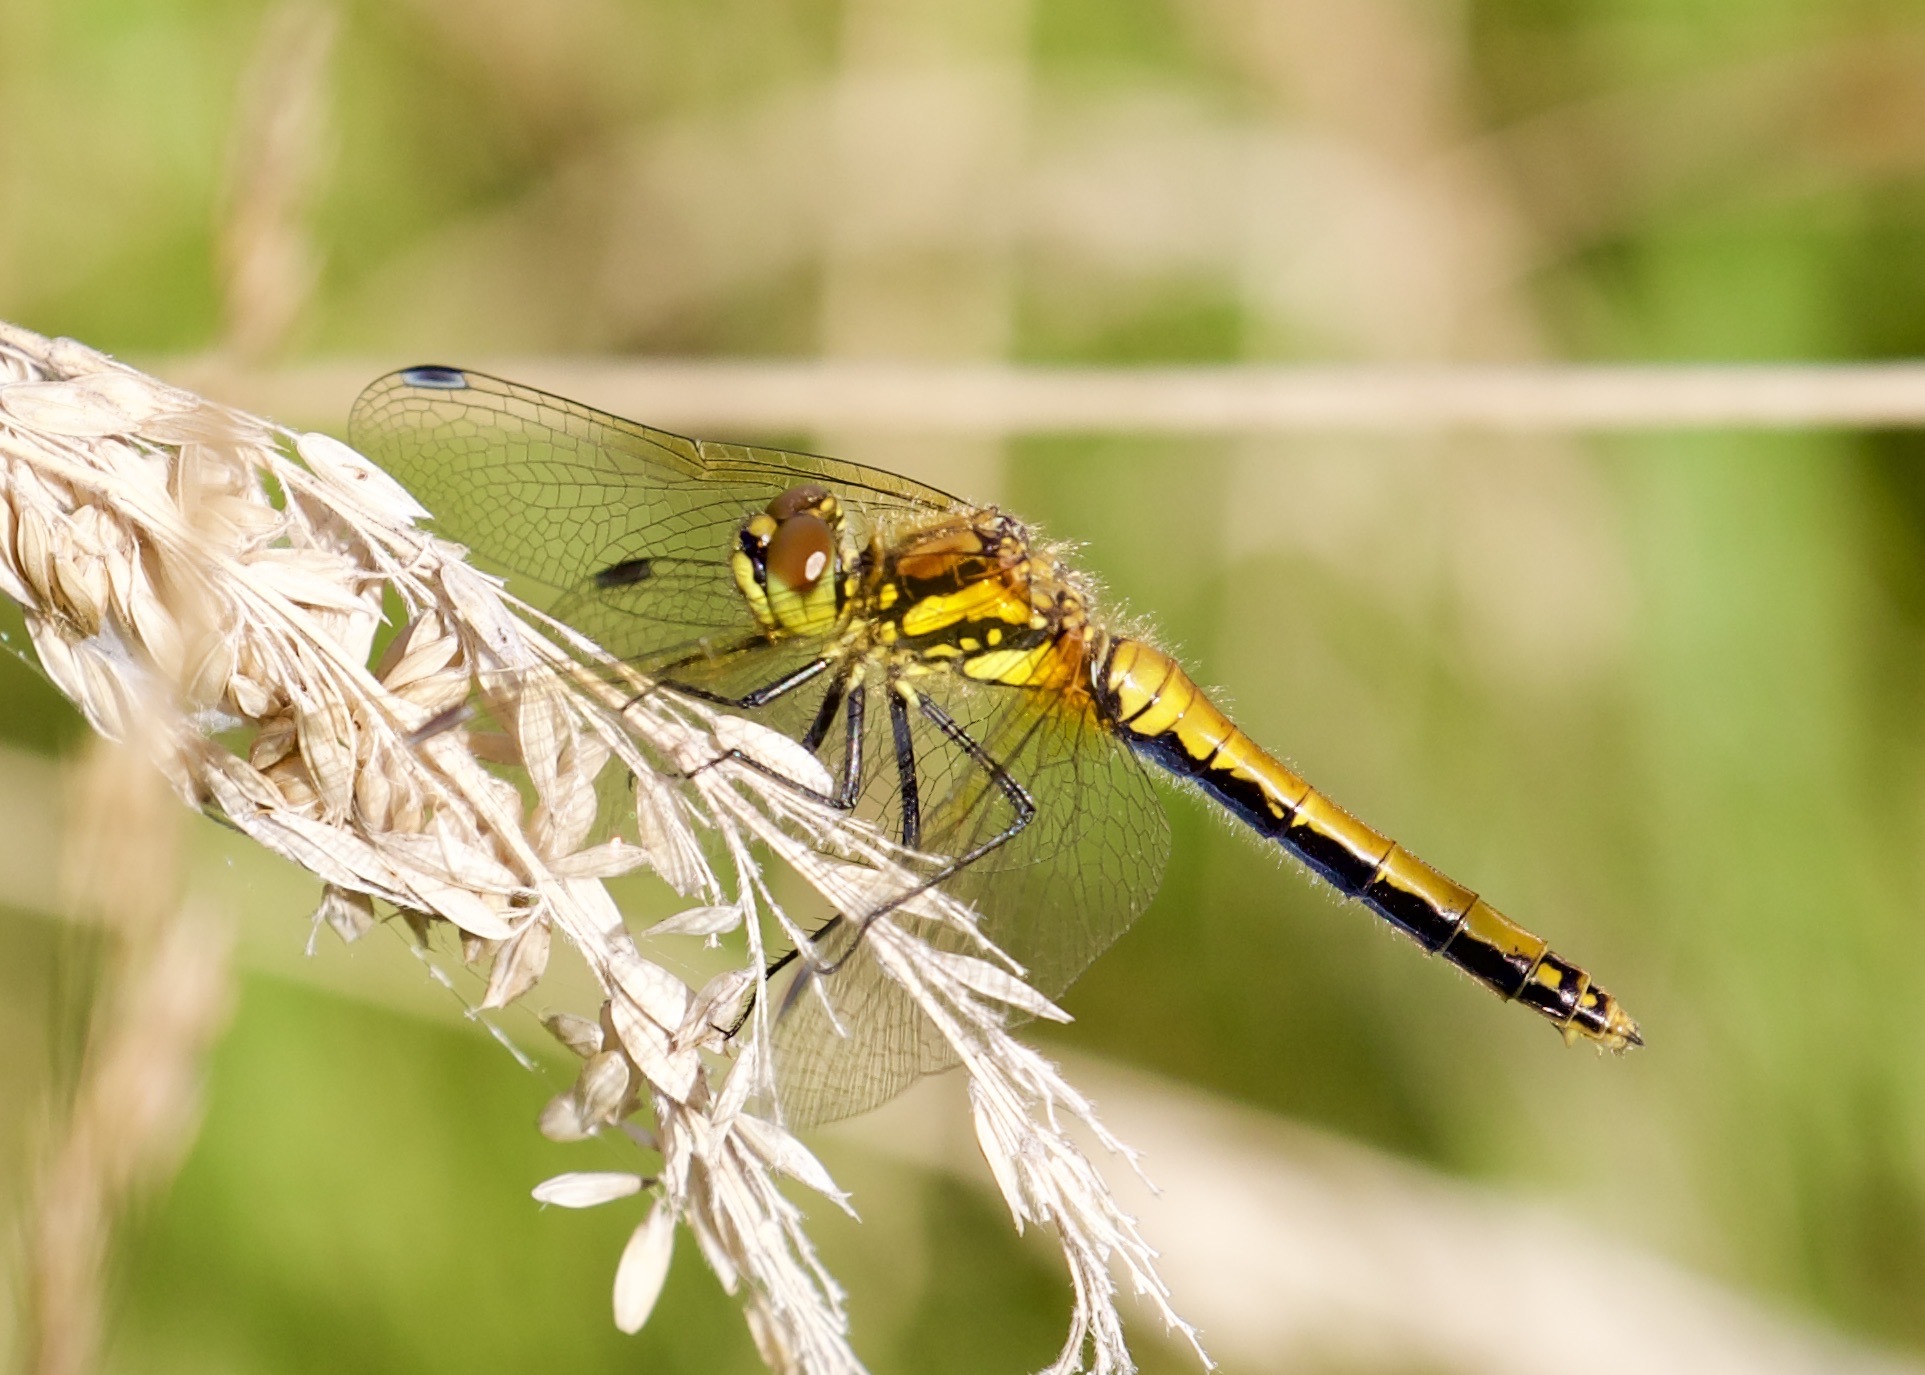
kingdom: Animalia
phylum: Arthropoda
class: Insecta
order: Odonata
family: Libellulidae
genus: Sympetrum
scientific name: Sympetrum danae
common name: Black darter
